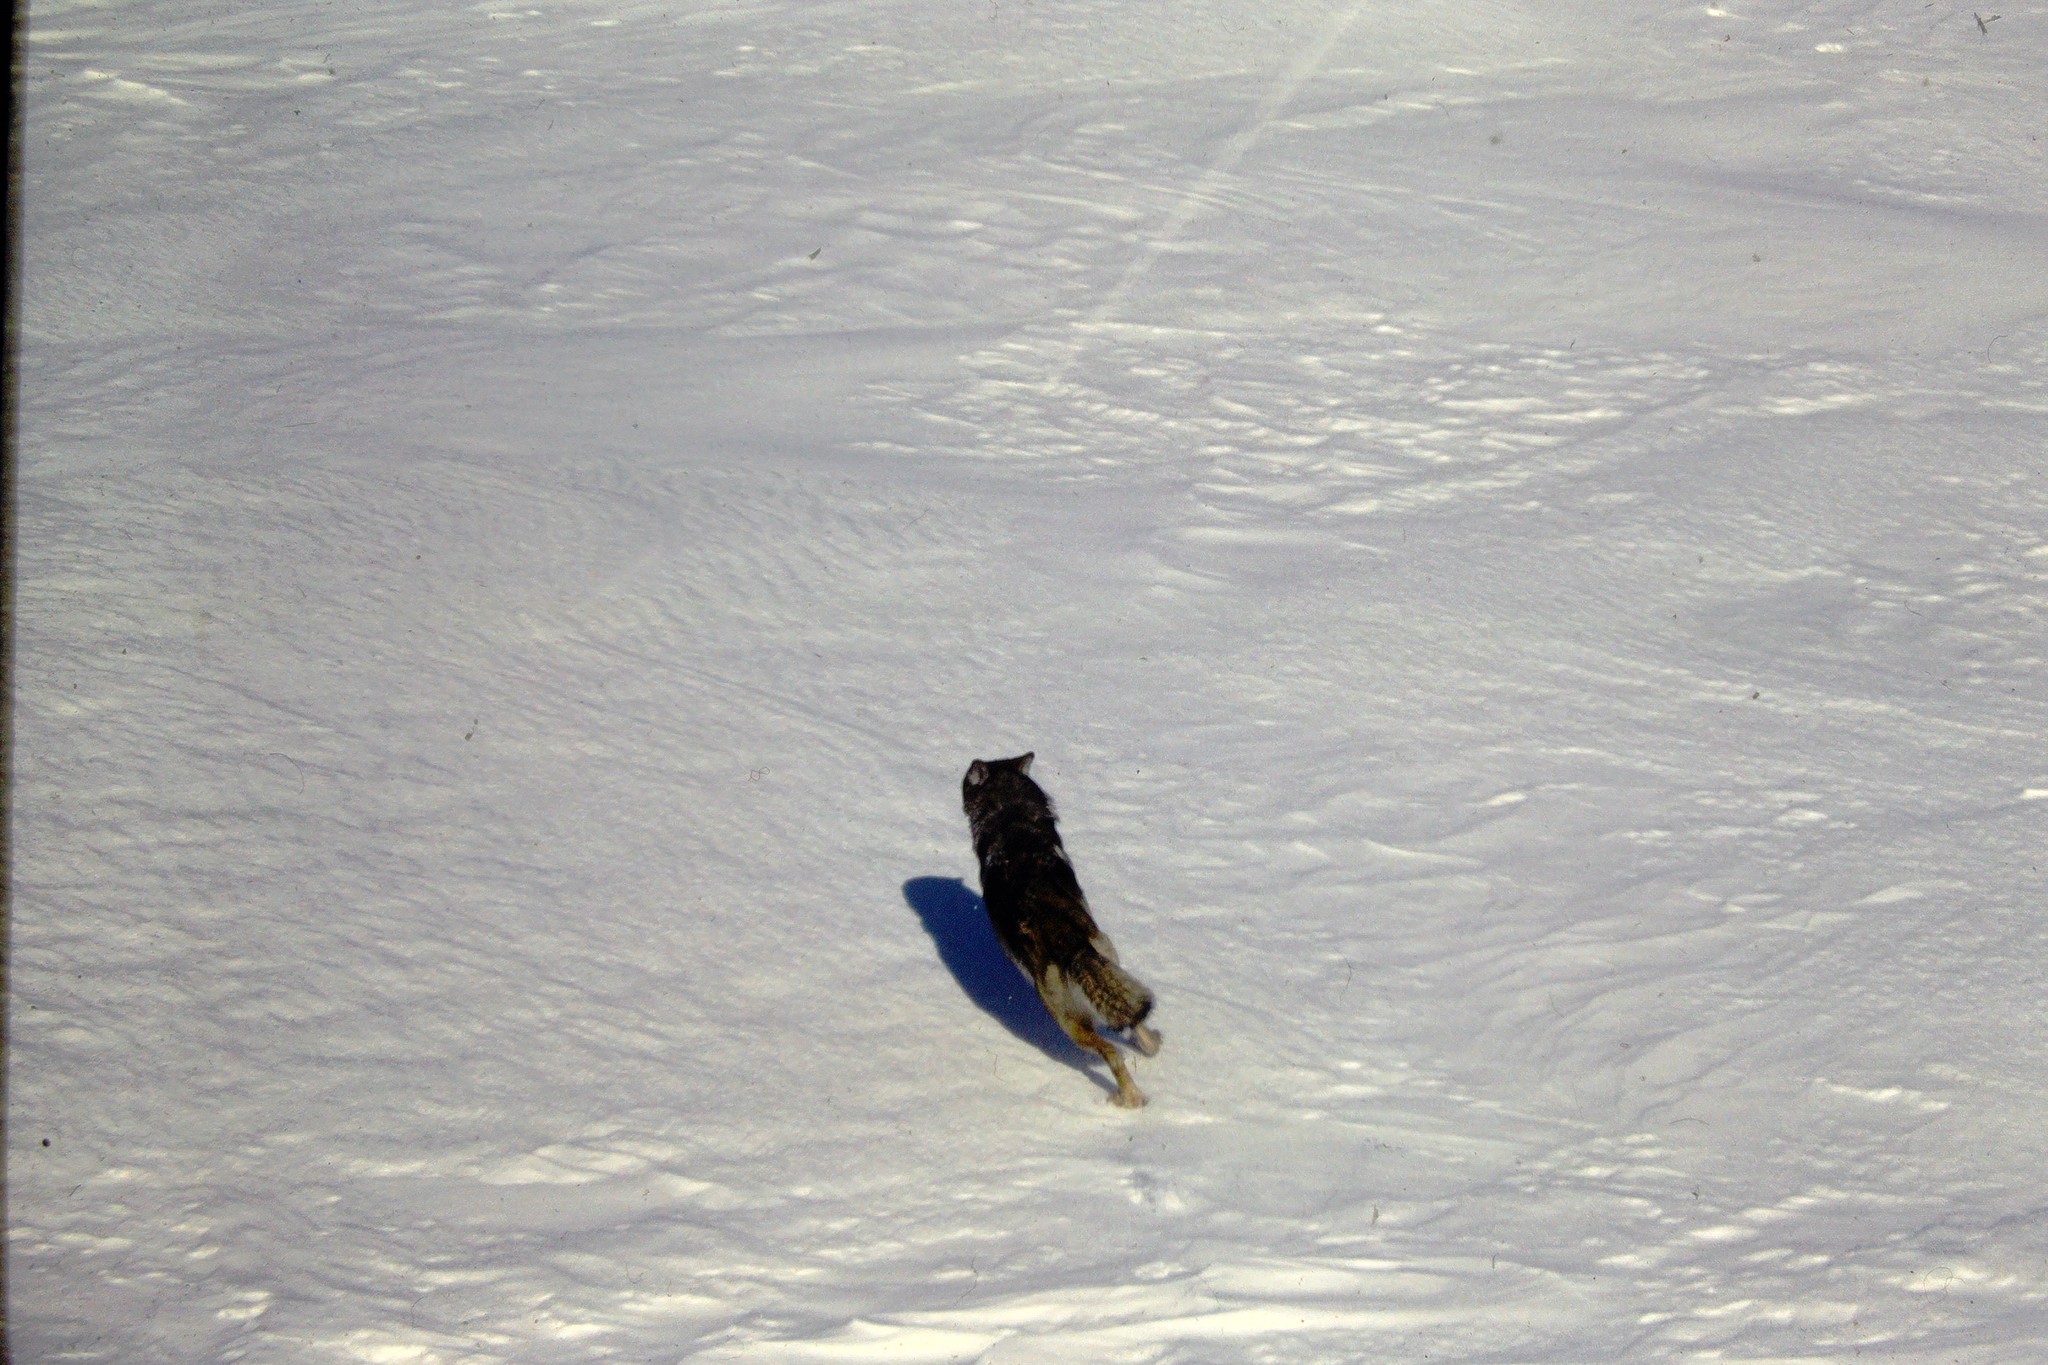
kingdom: Animalia
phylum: Chordata
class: Mammalia
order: Carnivora
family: Canidae
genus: Canis
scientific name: Canis lupus
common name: Gray wolf
